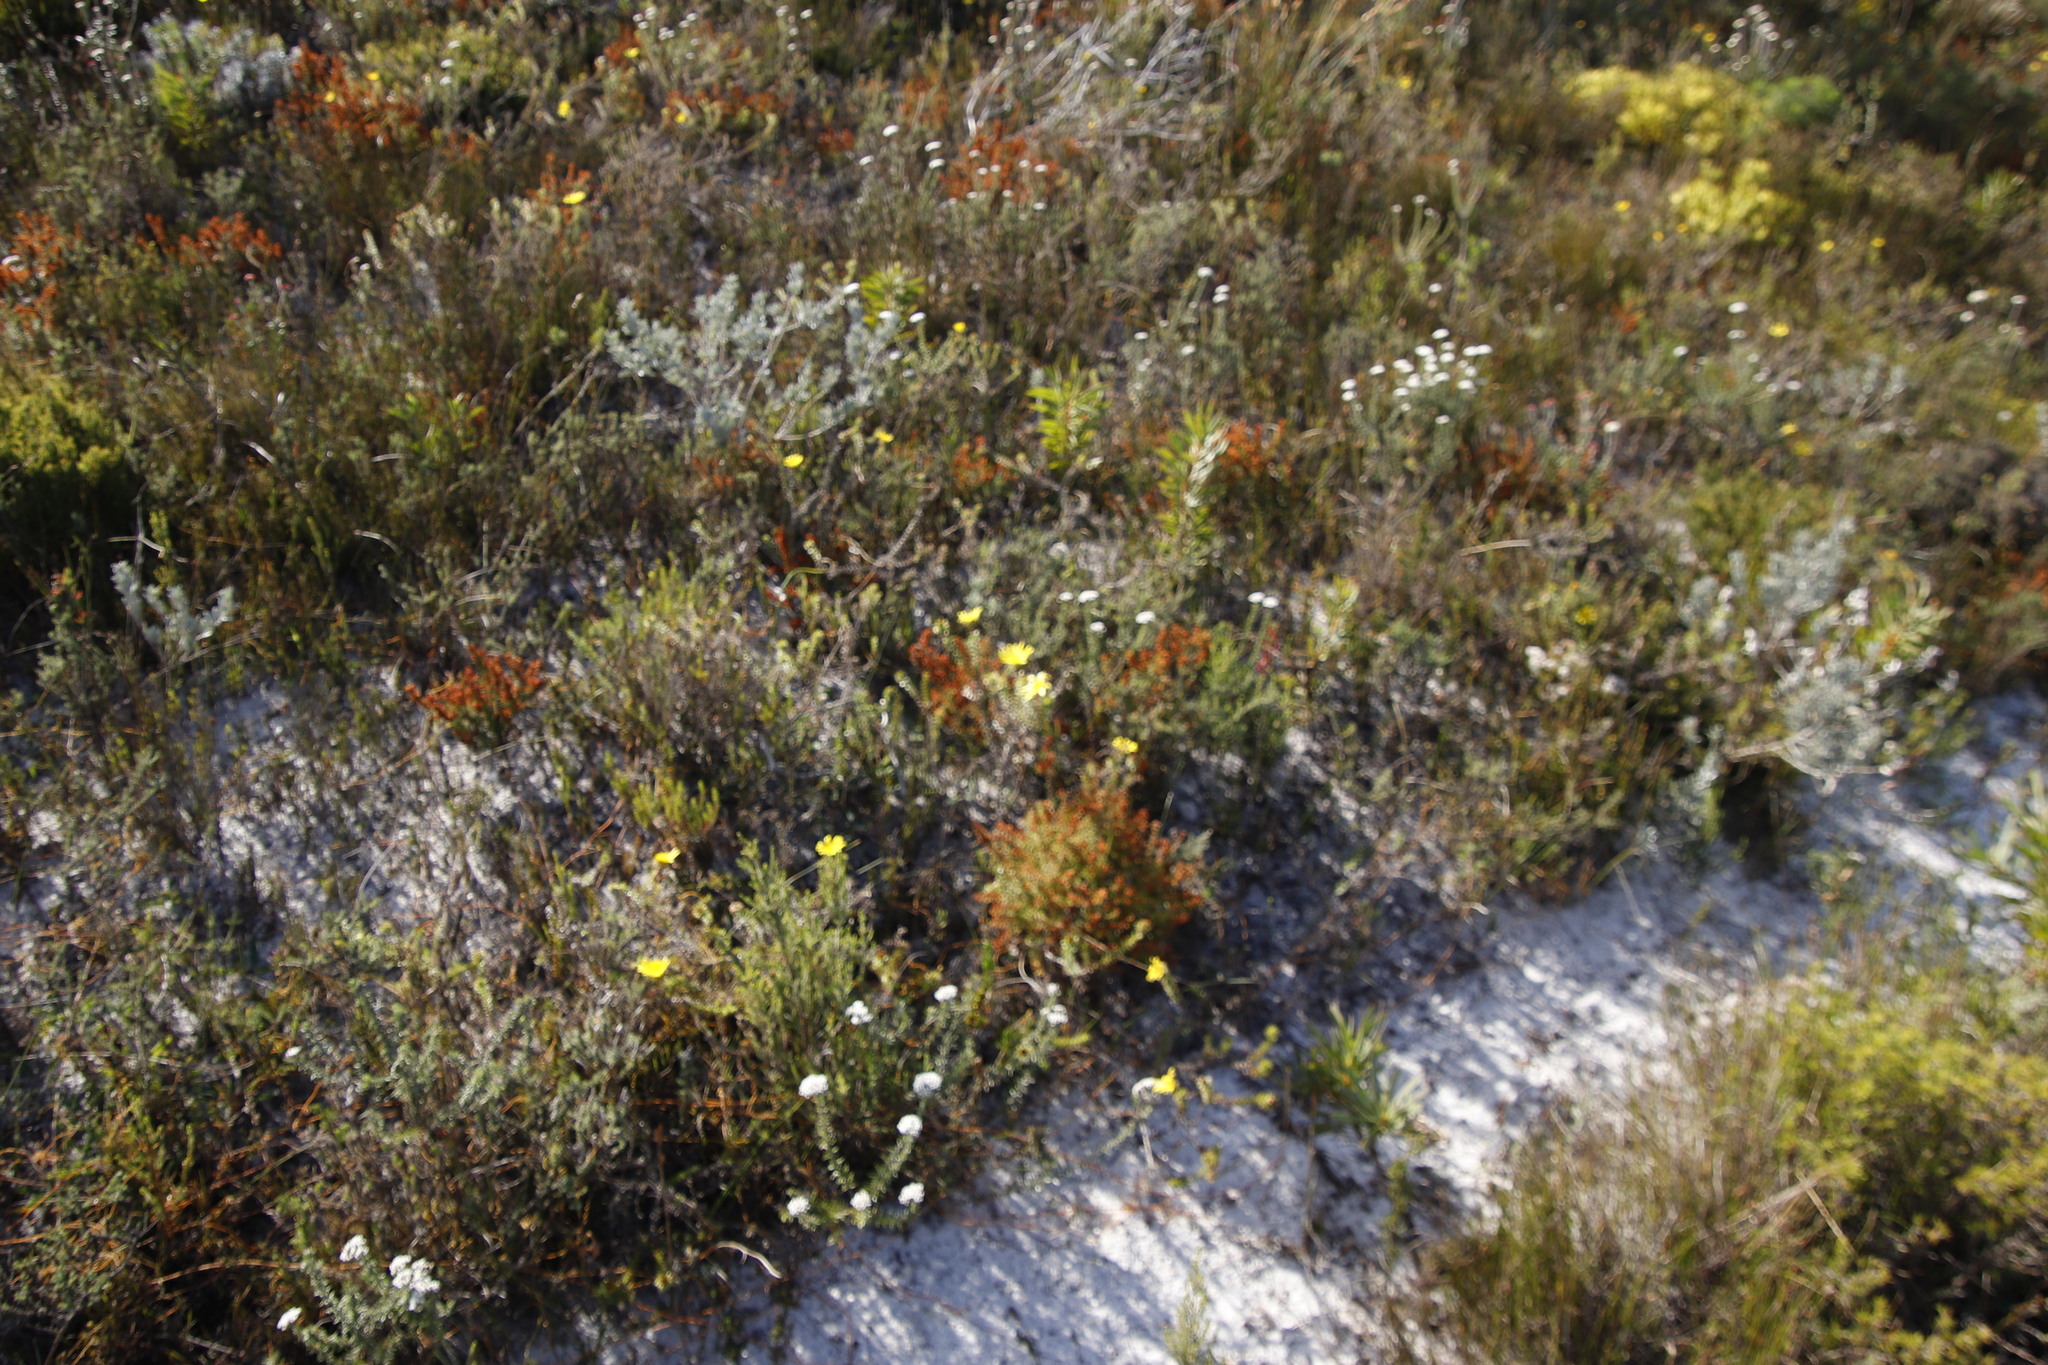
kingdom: Plantae
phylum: Tracheophyta
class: Magnoliopsida
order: Asterales
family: Asteraceae
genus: Cullumia
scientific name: Cullumia setosa
